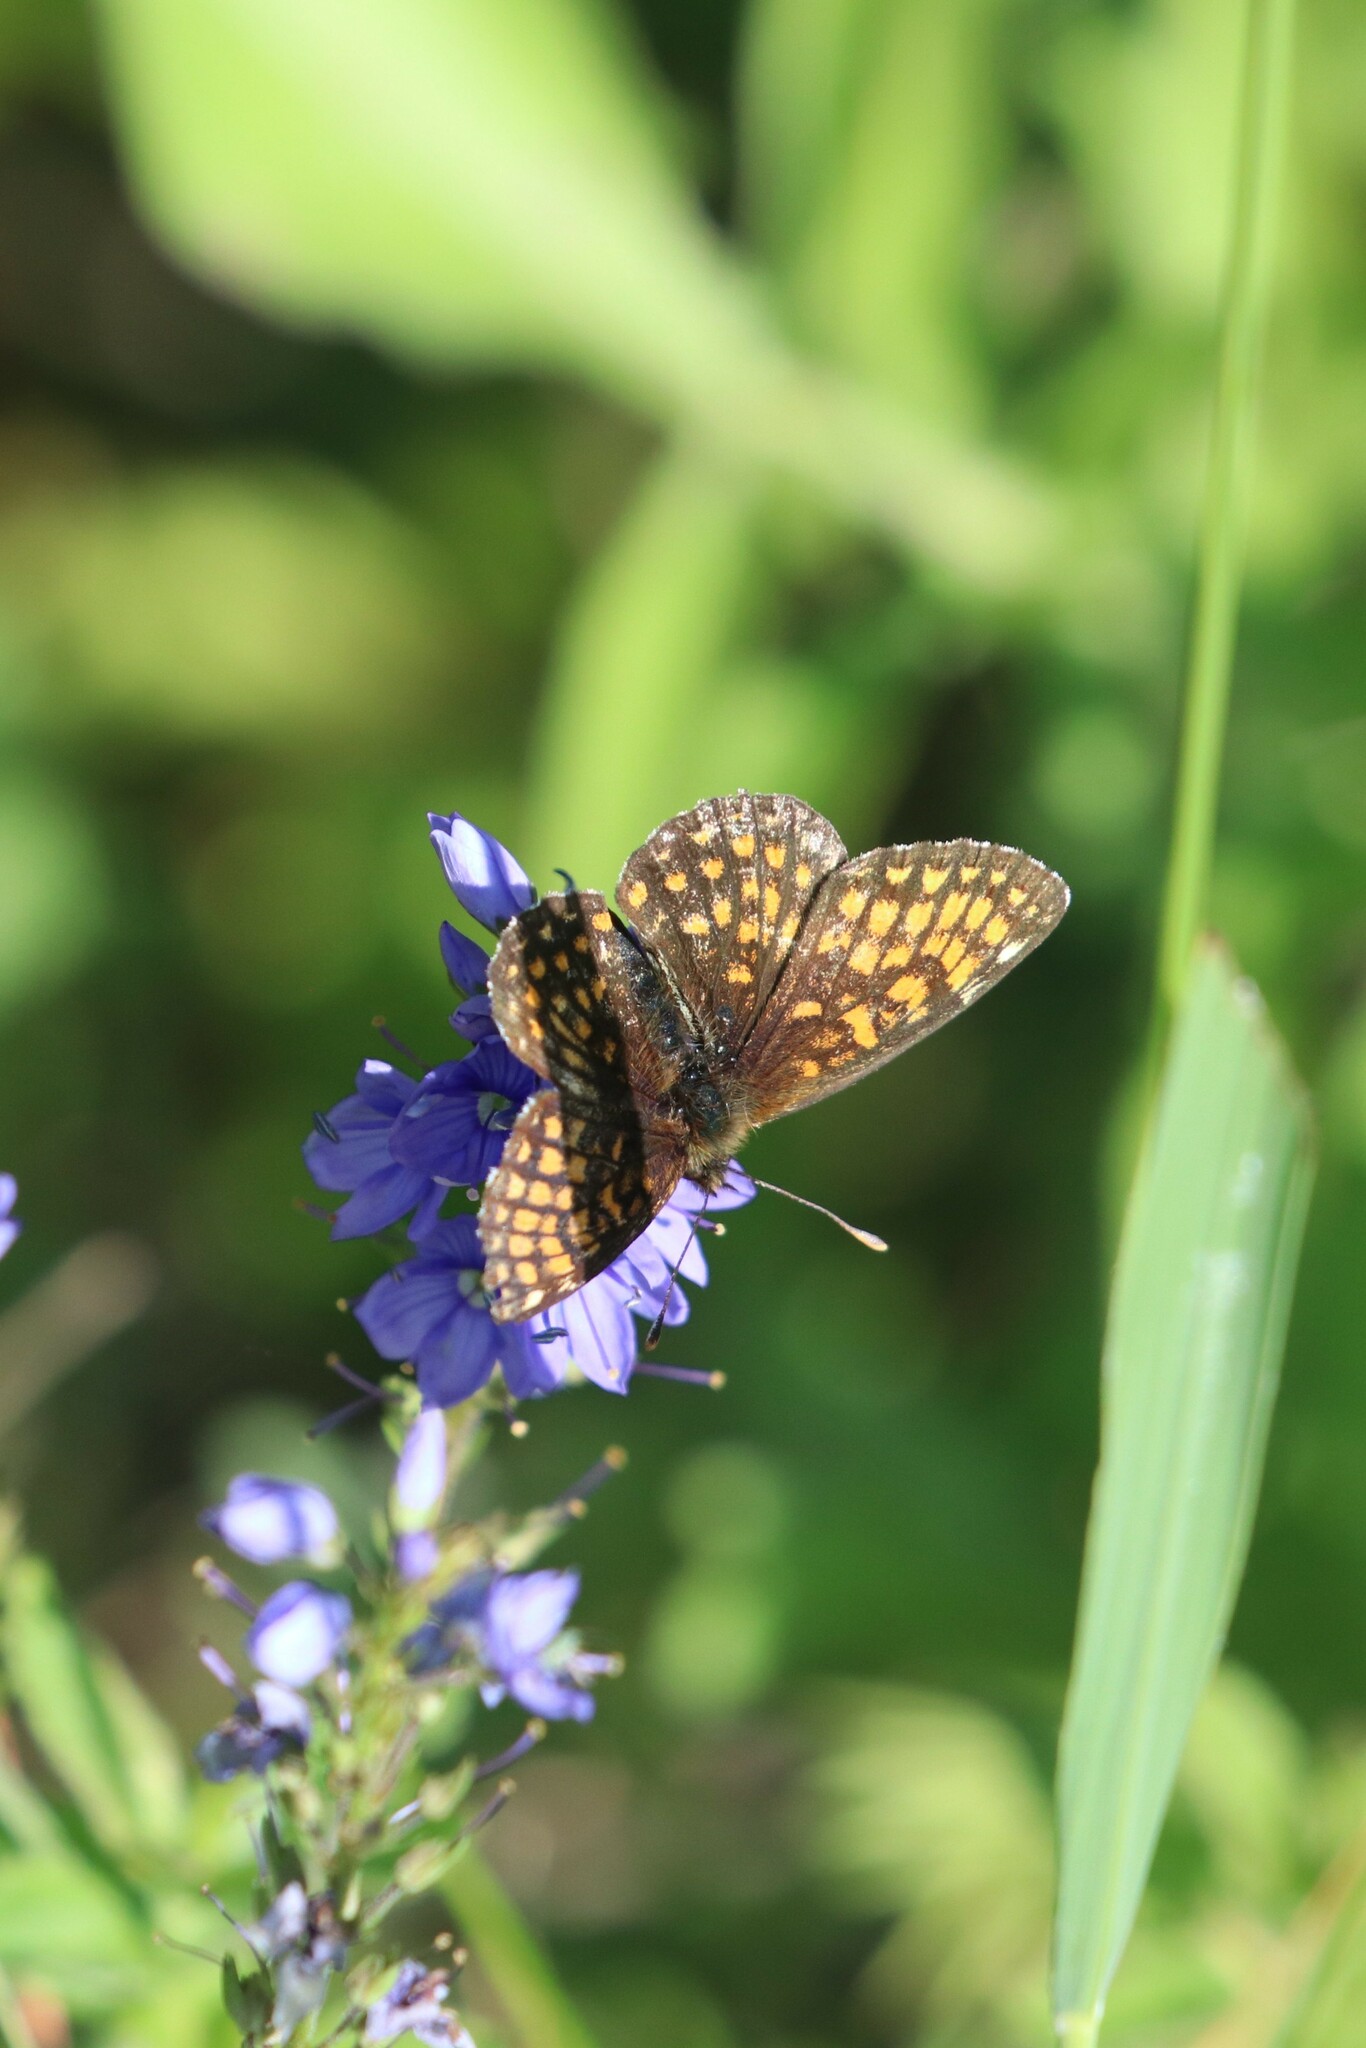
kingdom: Animalia
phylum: Arthropoda
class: Insecta
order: Lepidoptera
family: Nymphalidae
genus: Melitaea
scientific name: Melitaea
